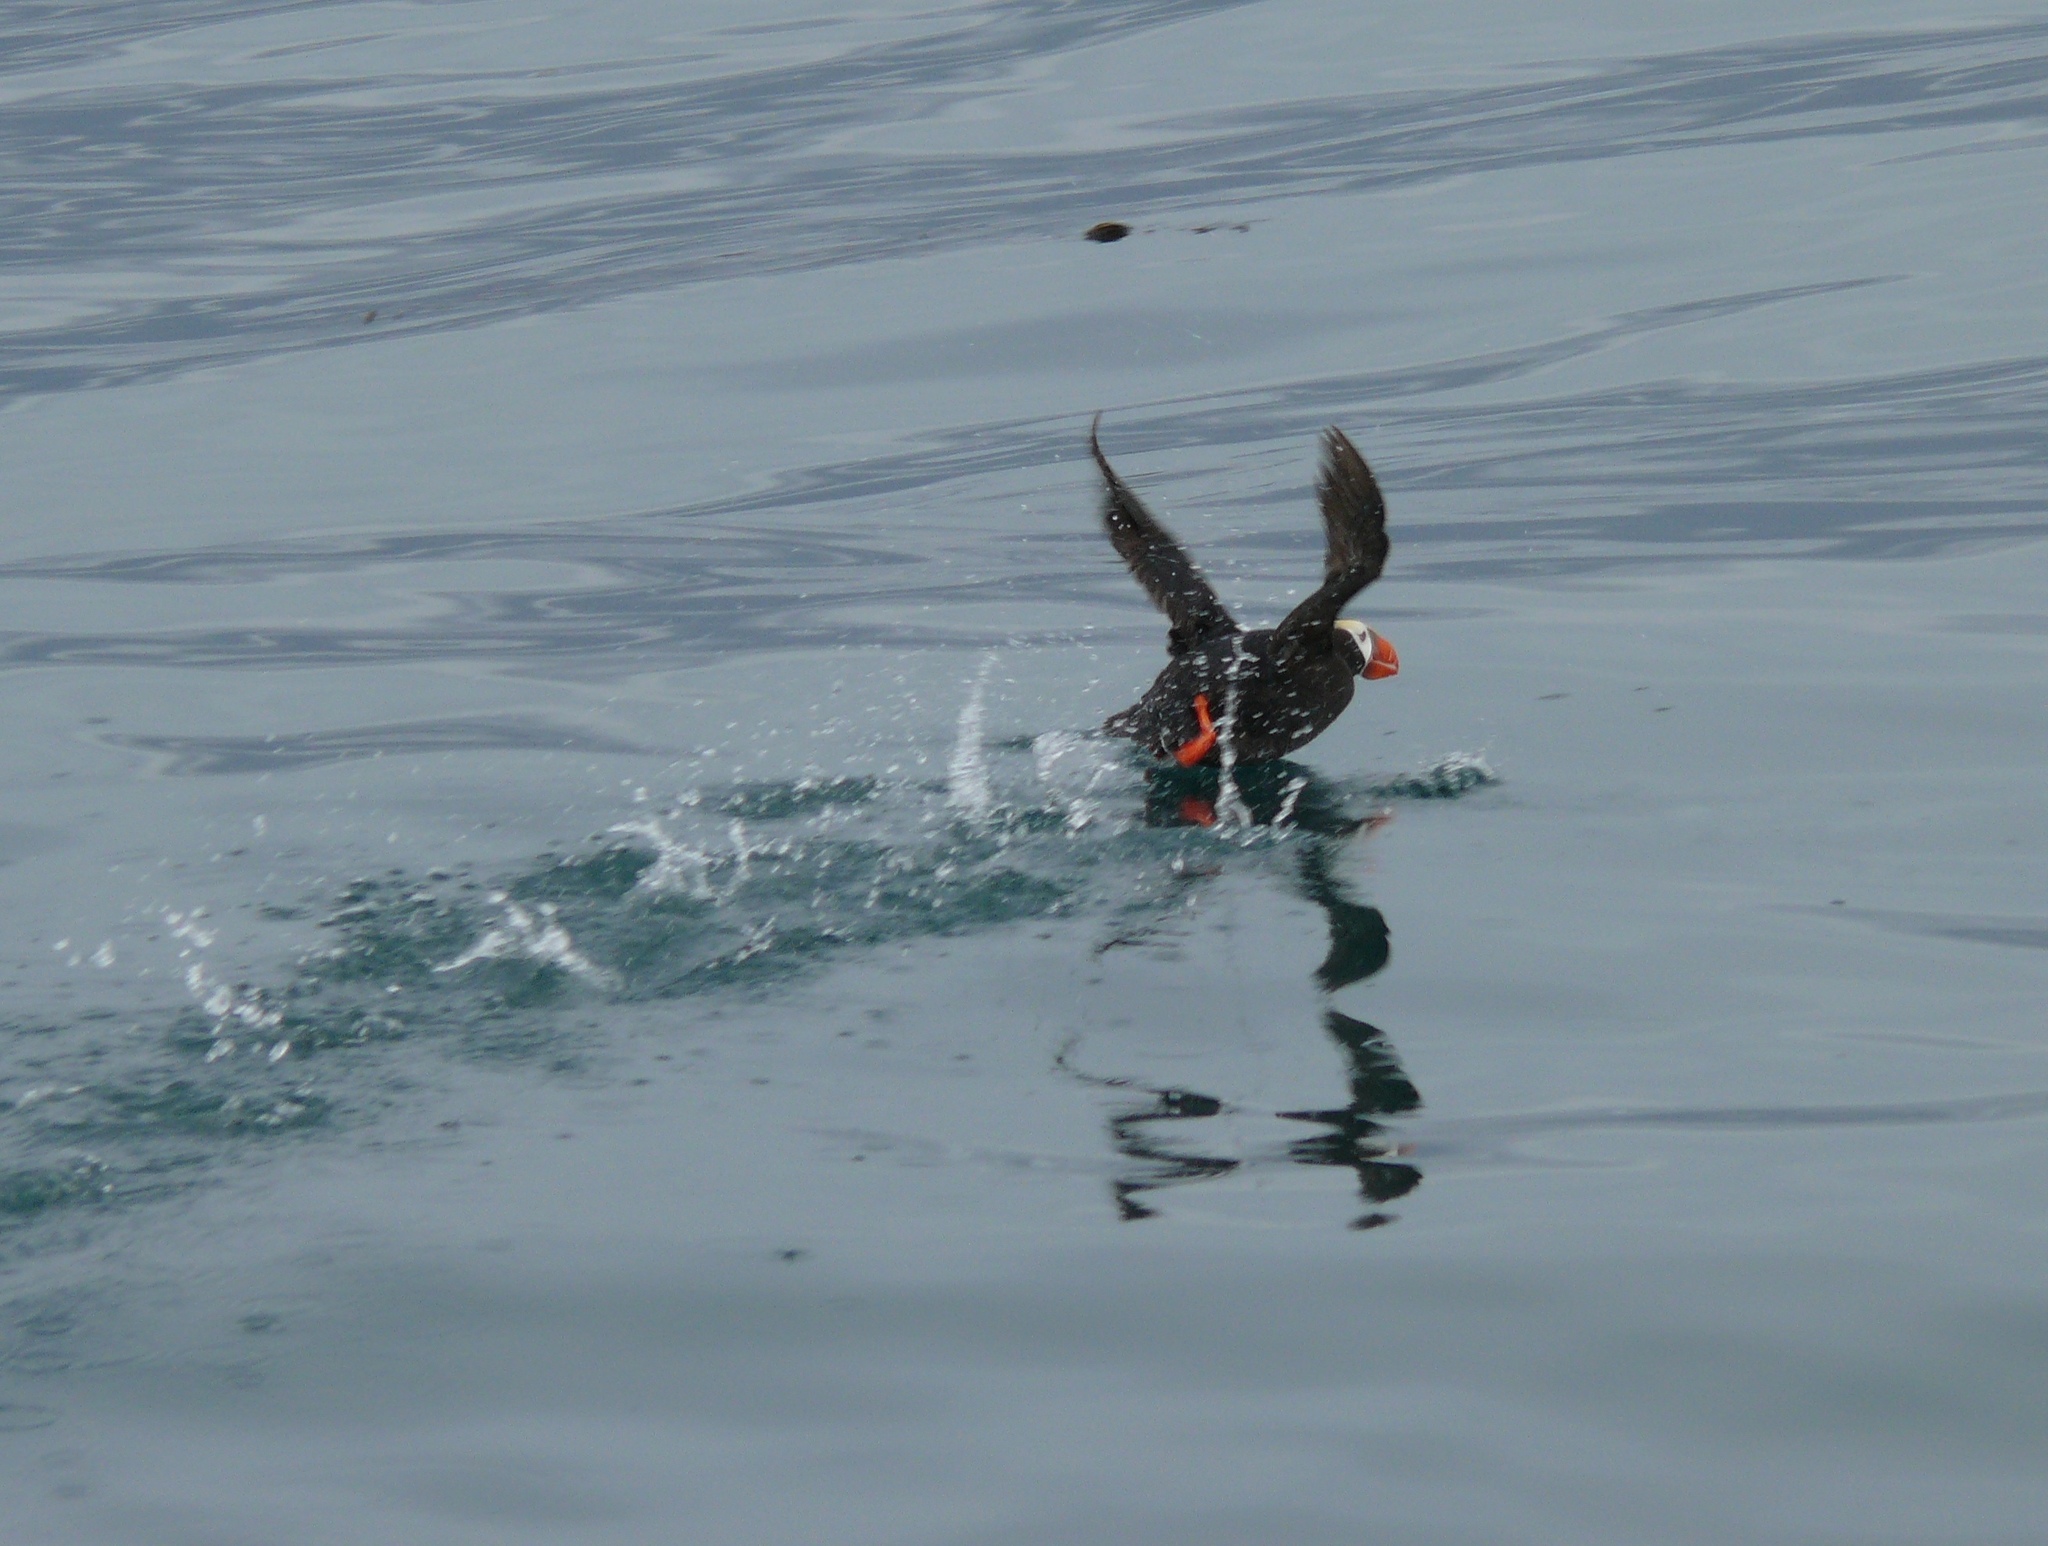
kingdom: Animalia
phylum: Chordata
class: Aves
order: Charadriiformes
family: Alcidae
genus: Fratercula
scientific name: Fratercula cirrhata
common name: Tufted puffin
